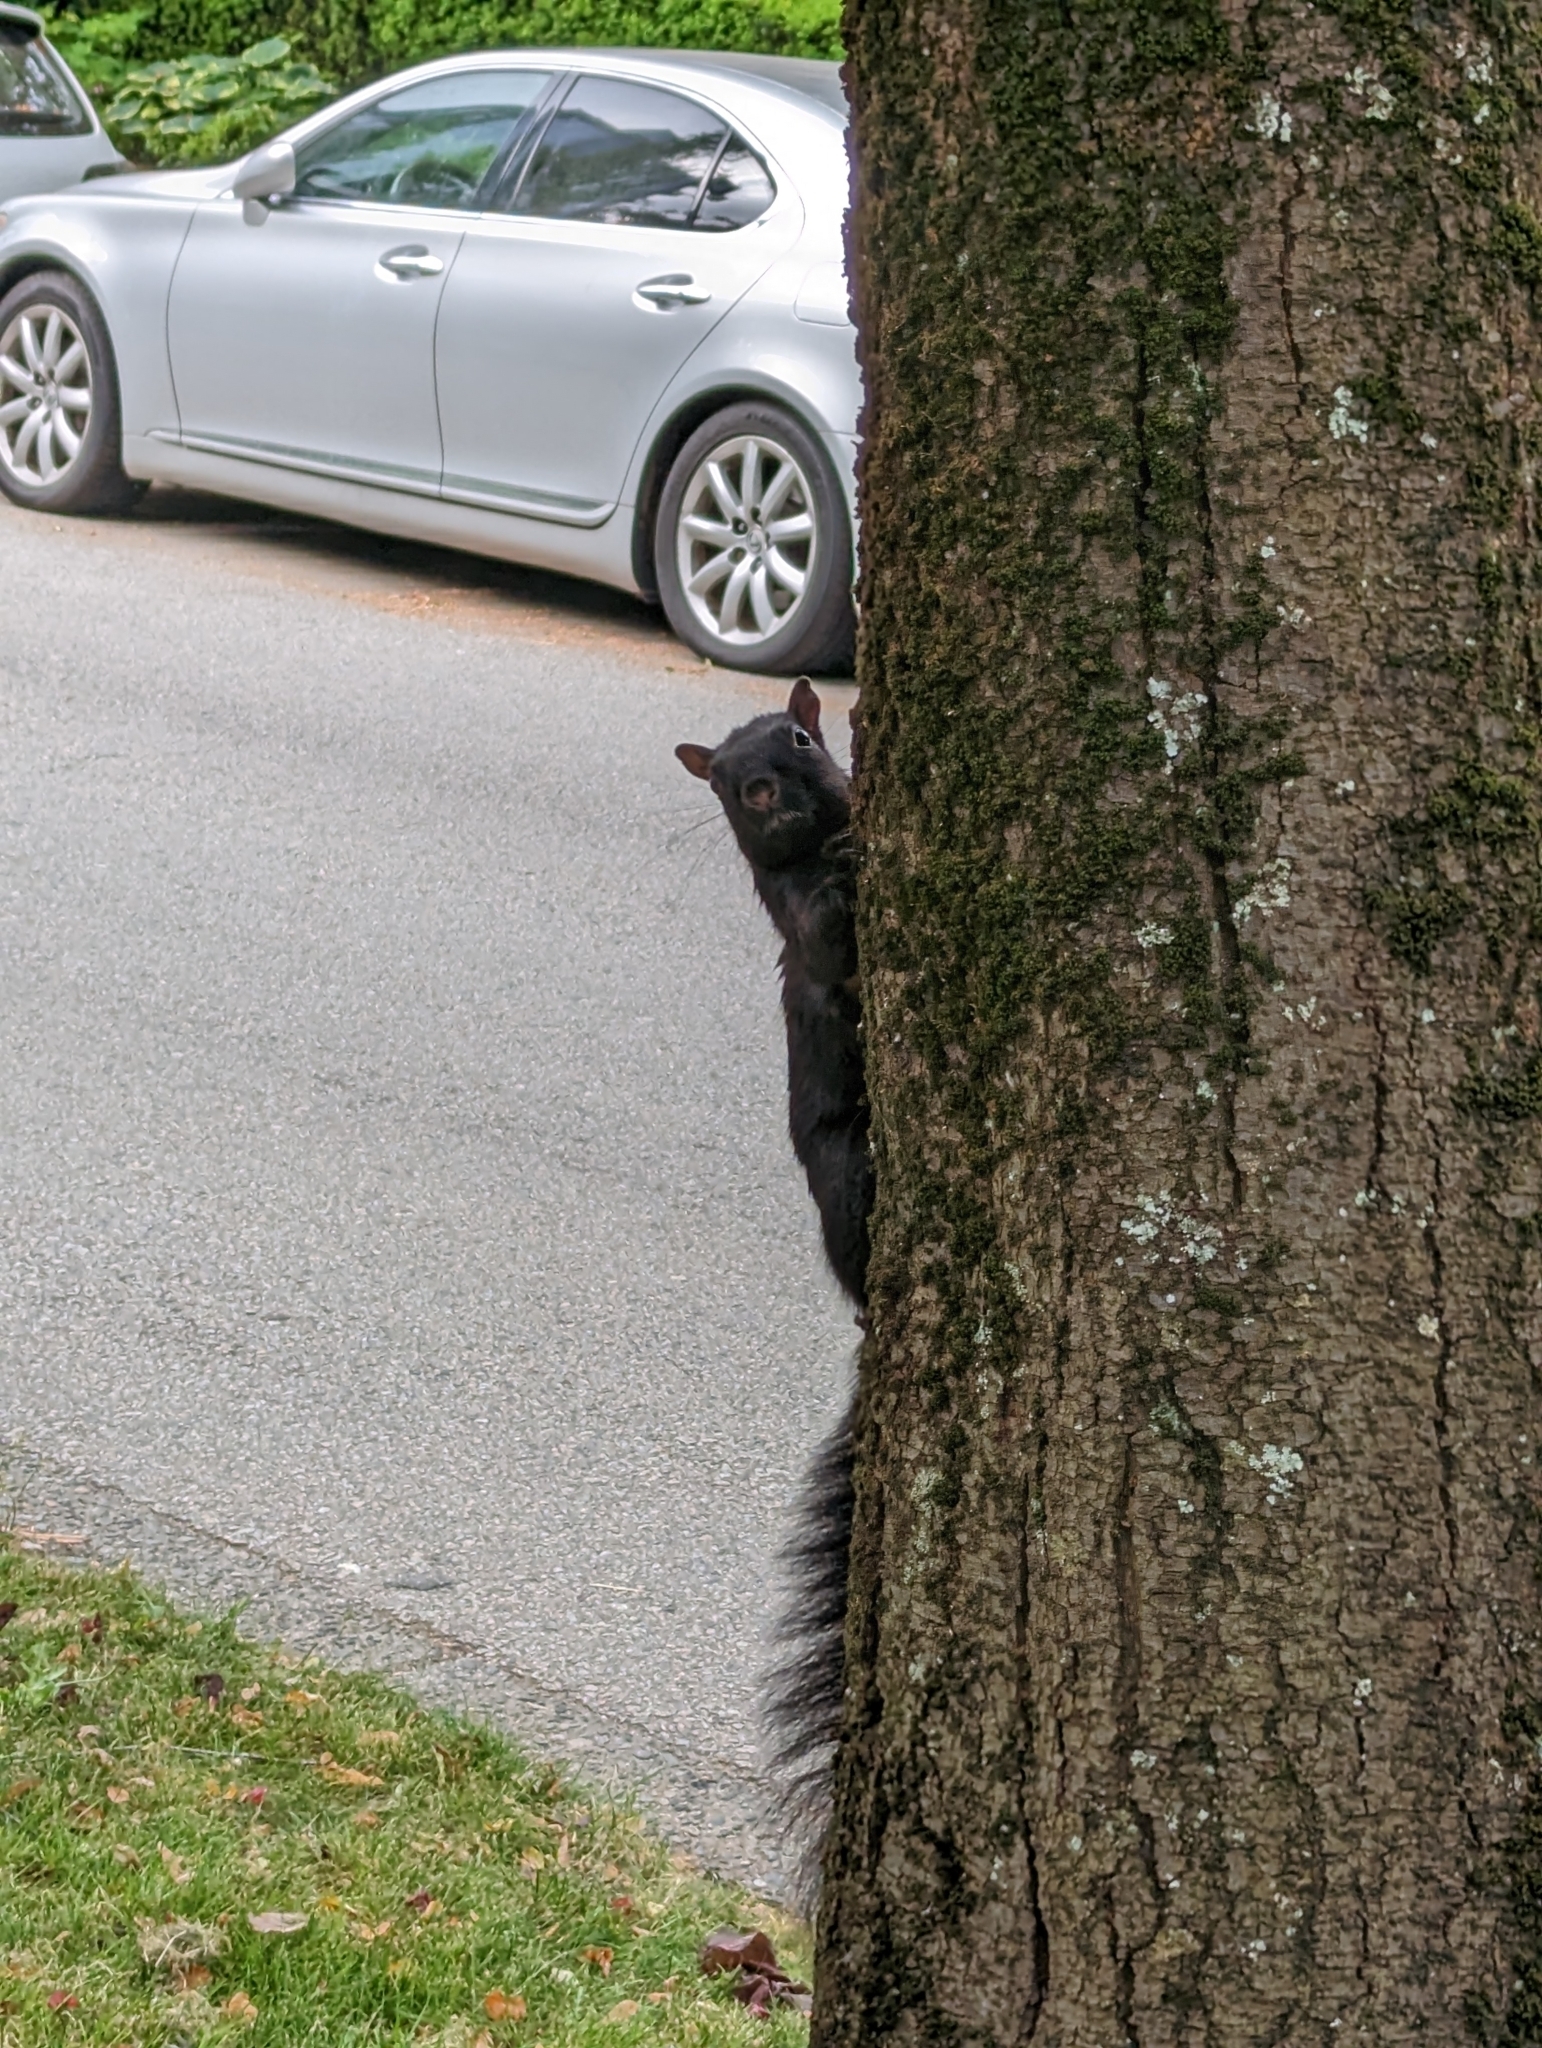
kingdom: Animalia
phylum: Chordata
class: Mammalia
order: Rodentia
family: Sciuridae
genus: Sciurus
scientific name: Sciurus carolinensis
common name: Eastern gray squirrel
